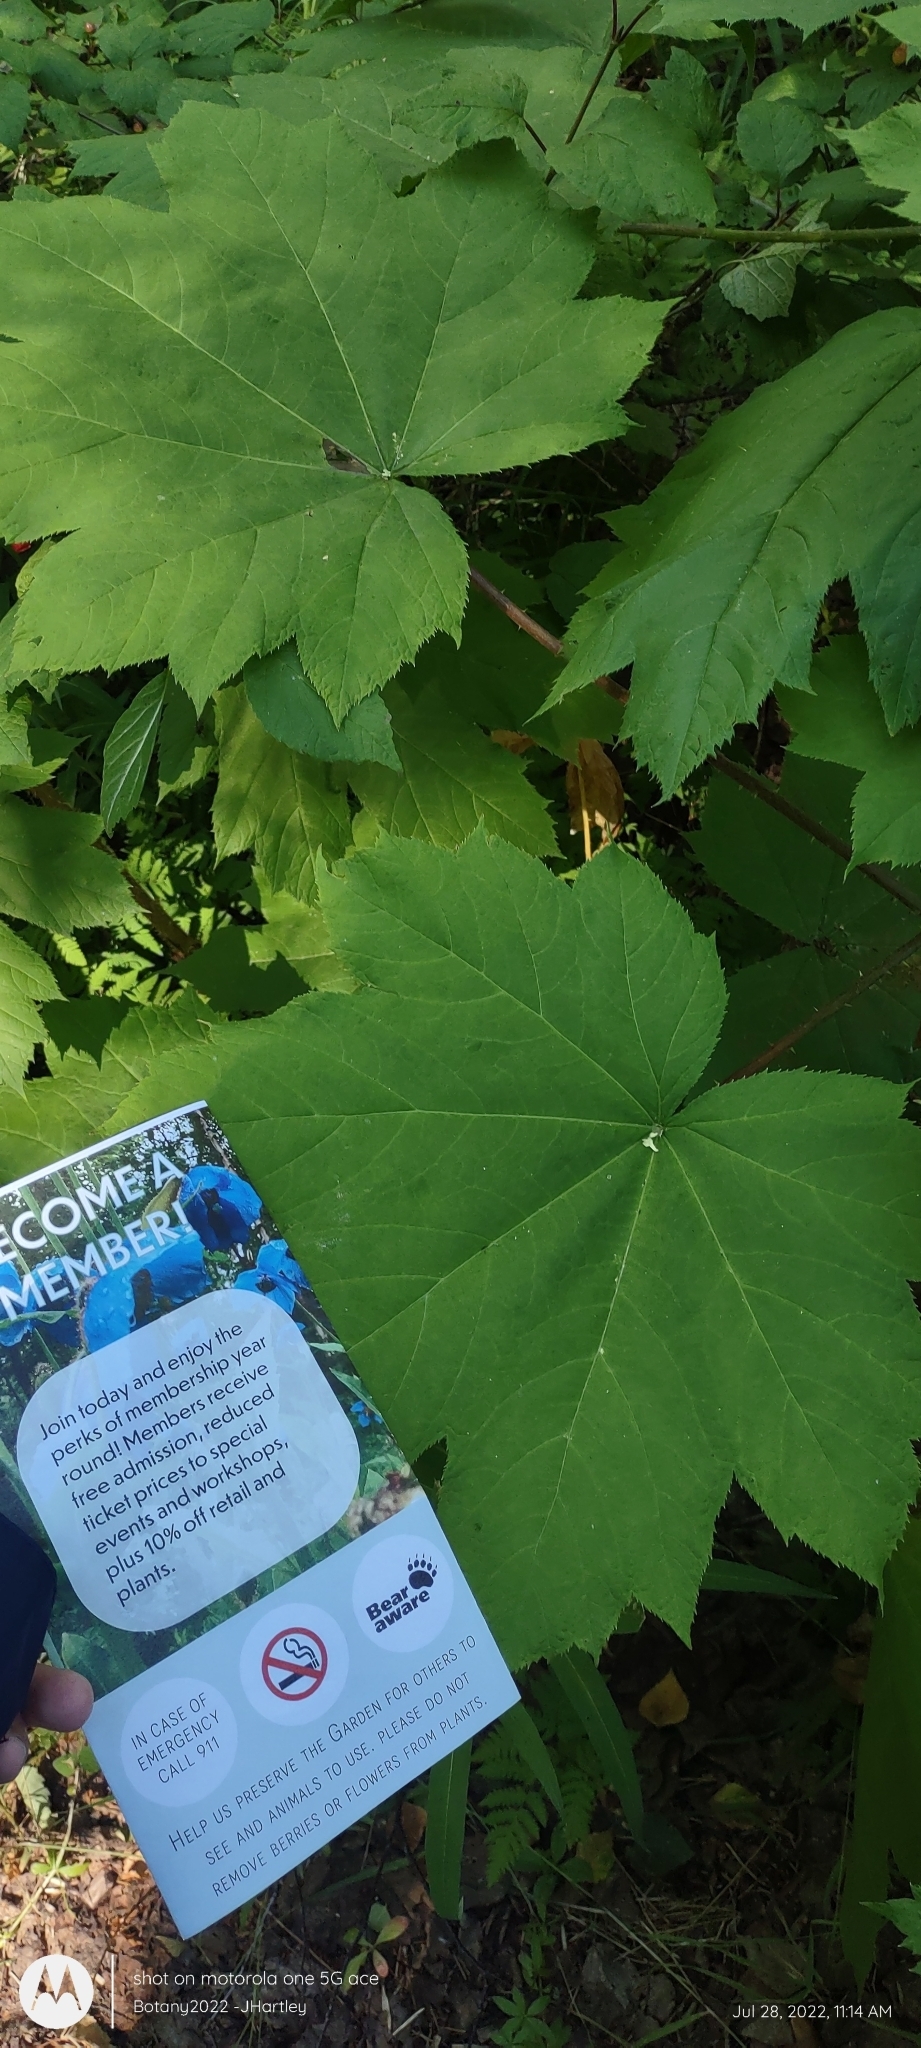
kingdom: Plantae
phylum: Tracheophyta
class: Magnoliopsida
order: Apiales
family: Araliaceae
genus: Oplopanax
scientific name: Oplopanax horridus
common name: Devil's walking-stick
